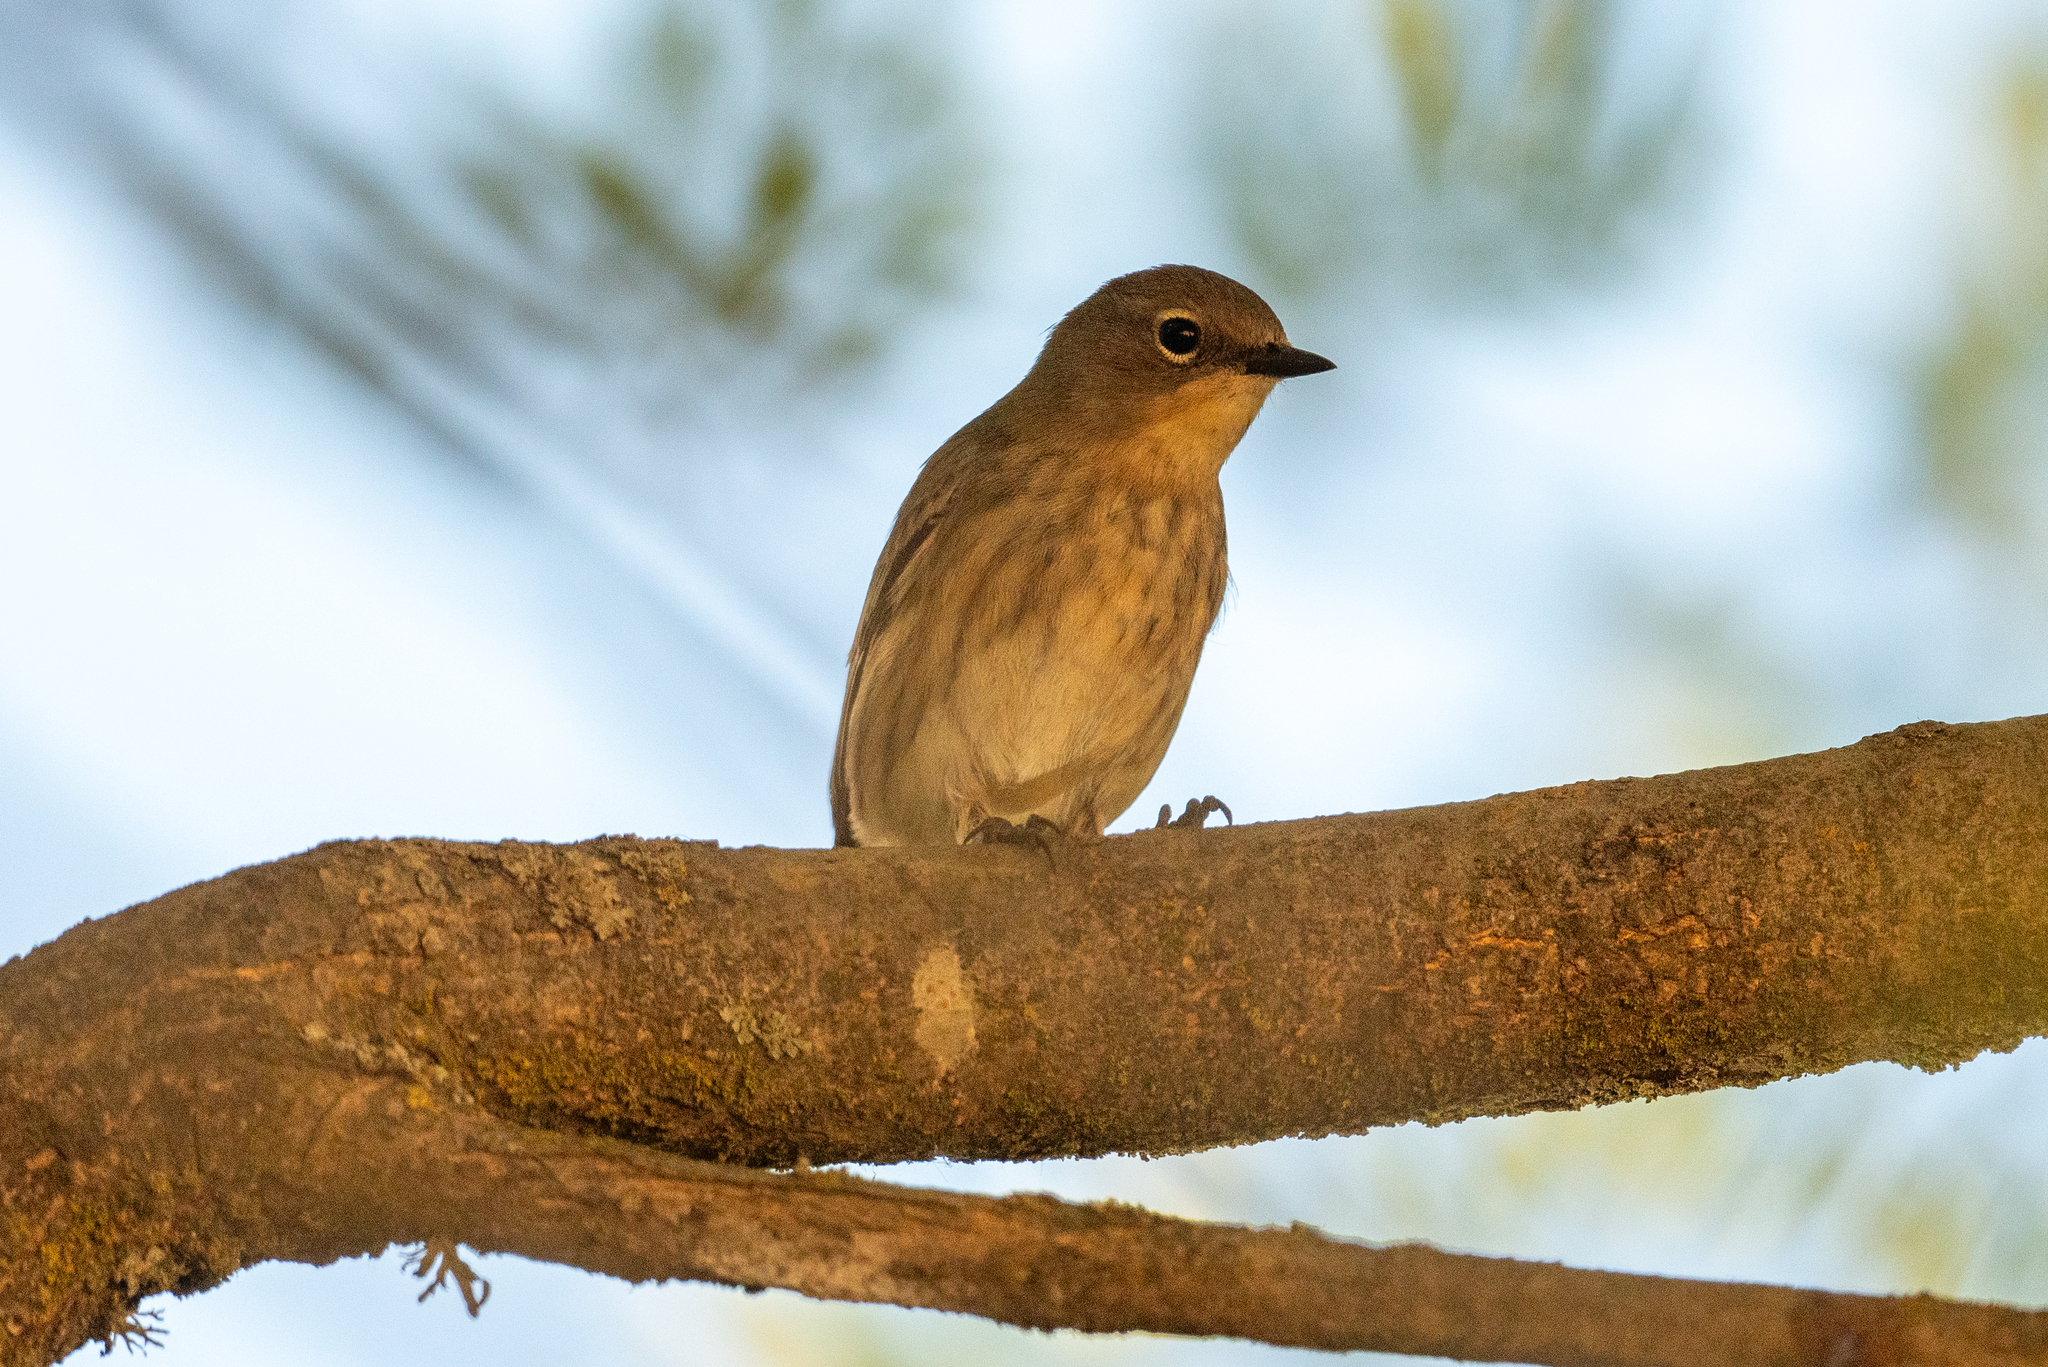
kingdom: Animalia
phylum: Chordata
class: Aves
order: Passeriformes
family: Parulidae
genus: Setophaga
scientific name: Setophaga coronata
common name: Myrtle warbler
